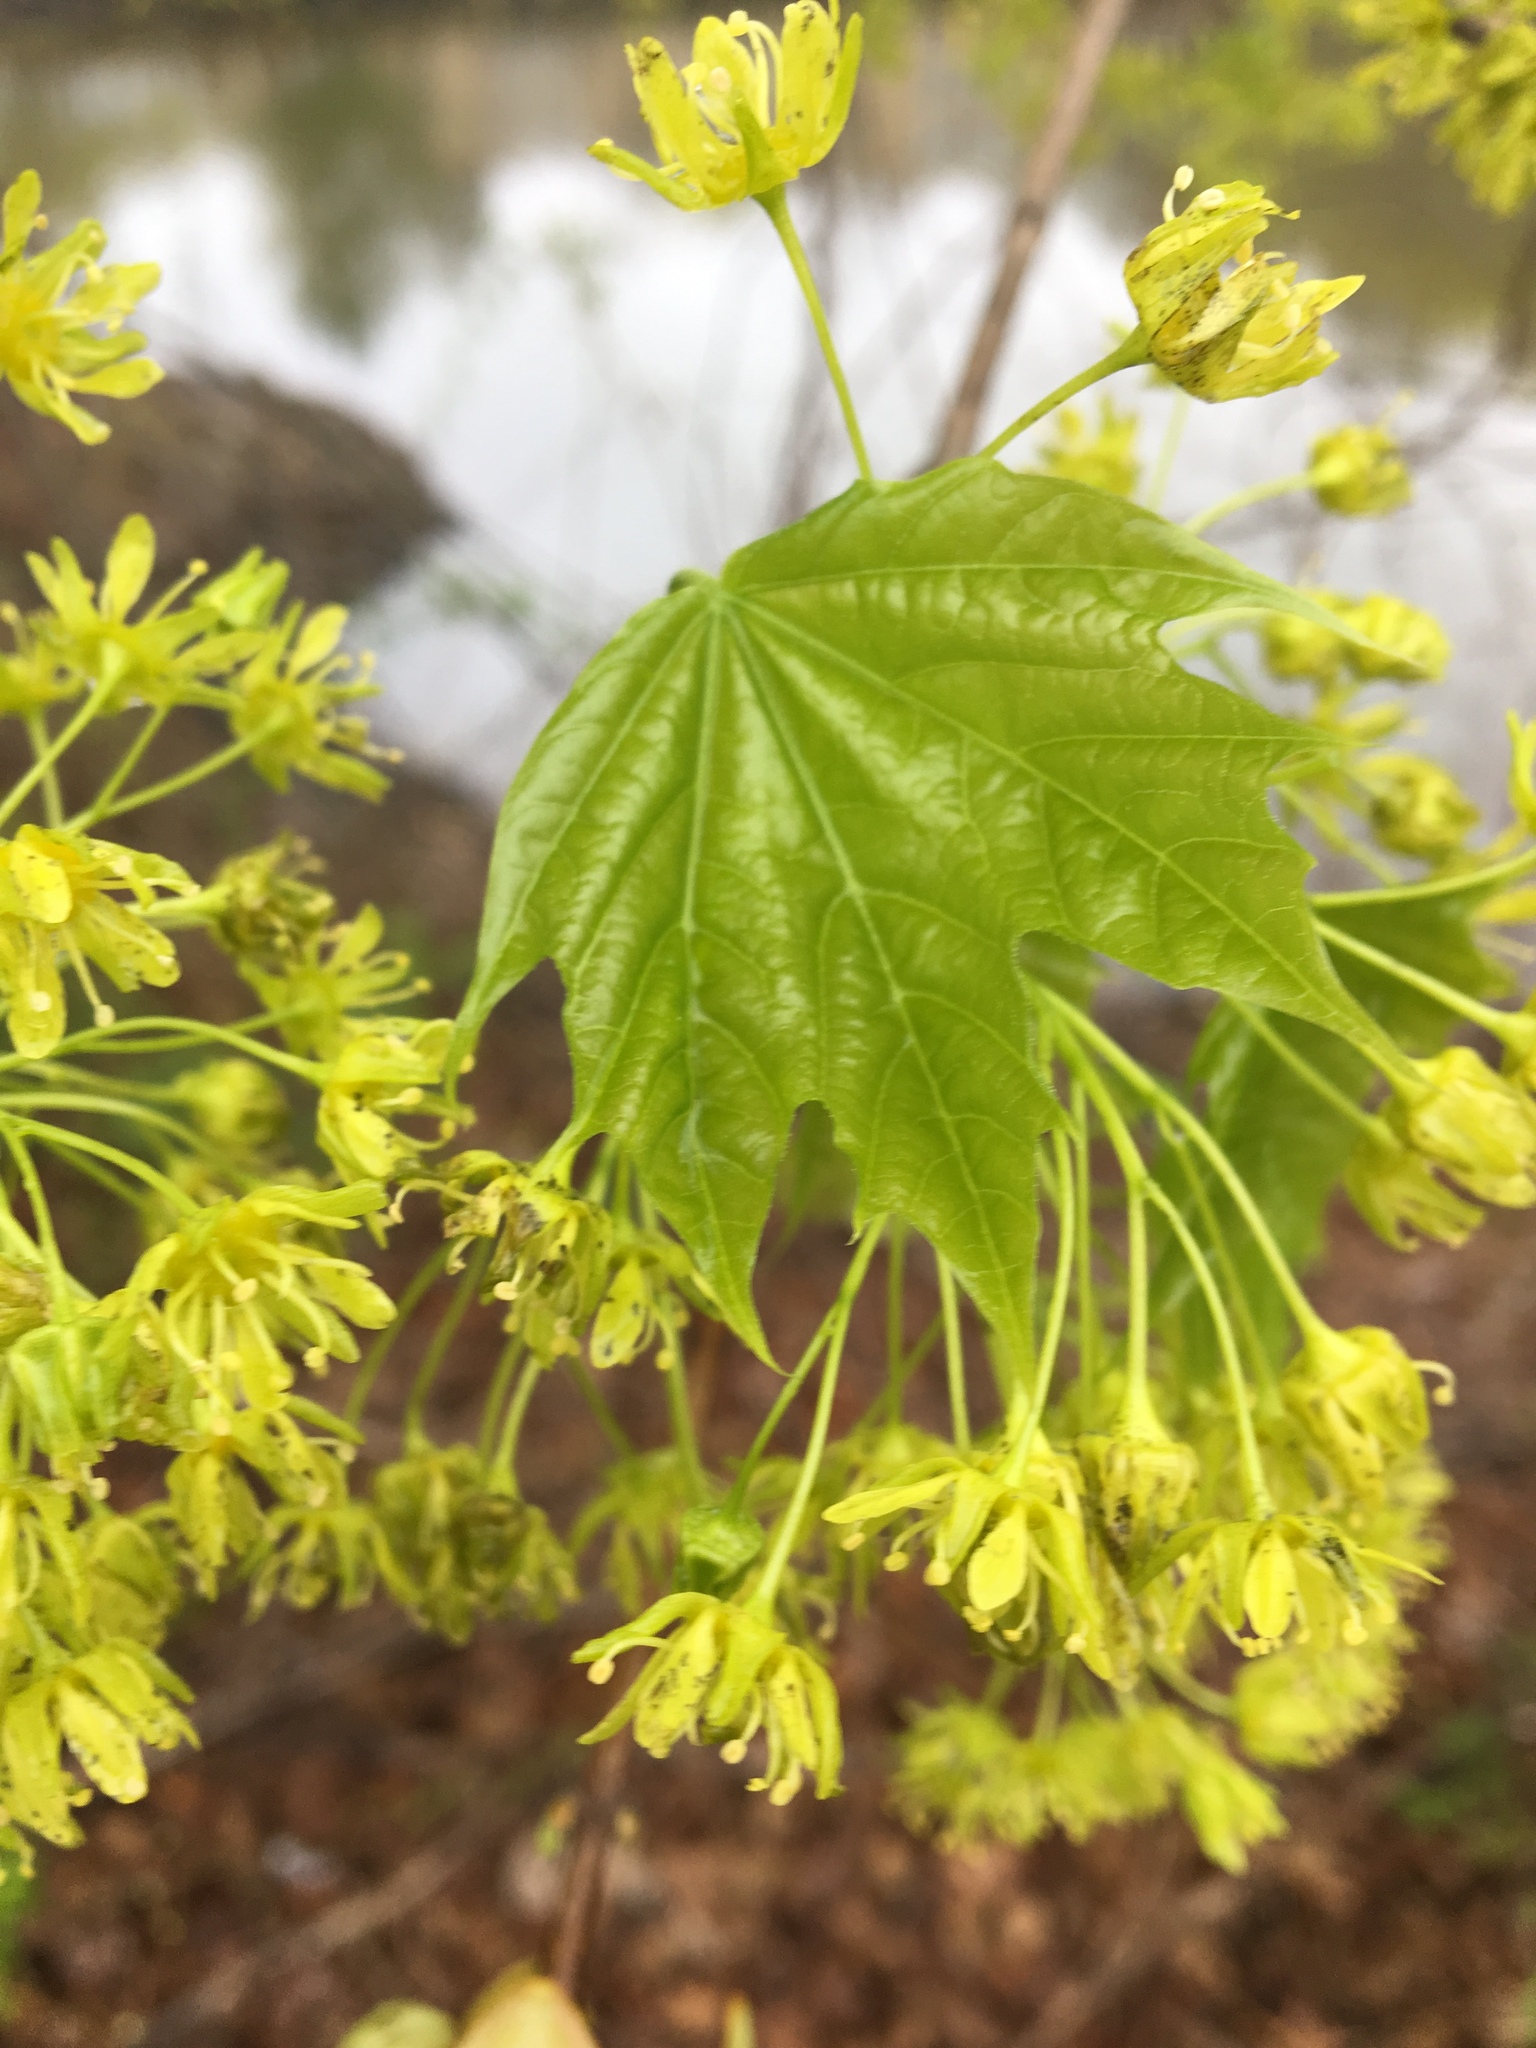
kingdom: Plantae
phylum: Tracheophyta
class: Magnoliopsida
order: Sapindales
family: Sapindaceae
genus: Acer
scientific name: Acer platanoides
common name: Norway maple
